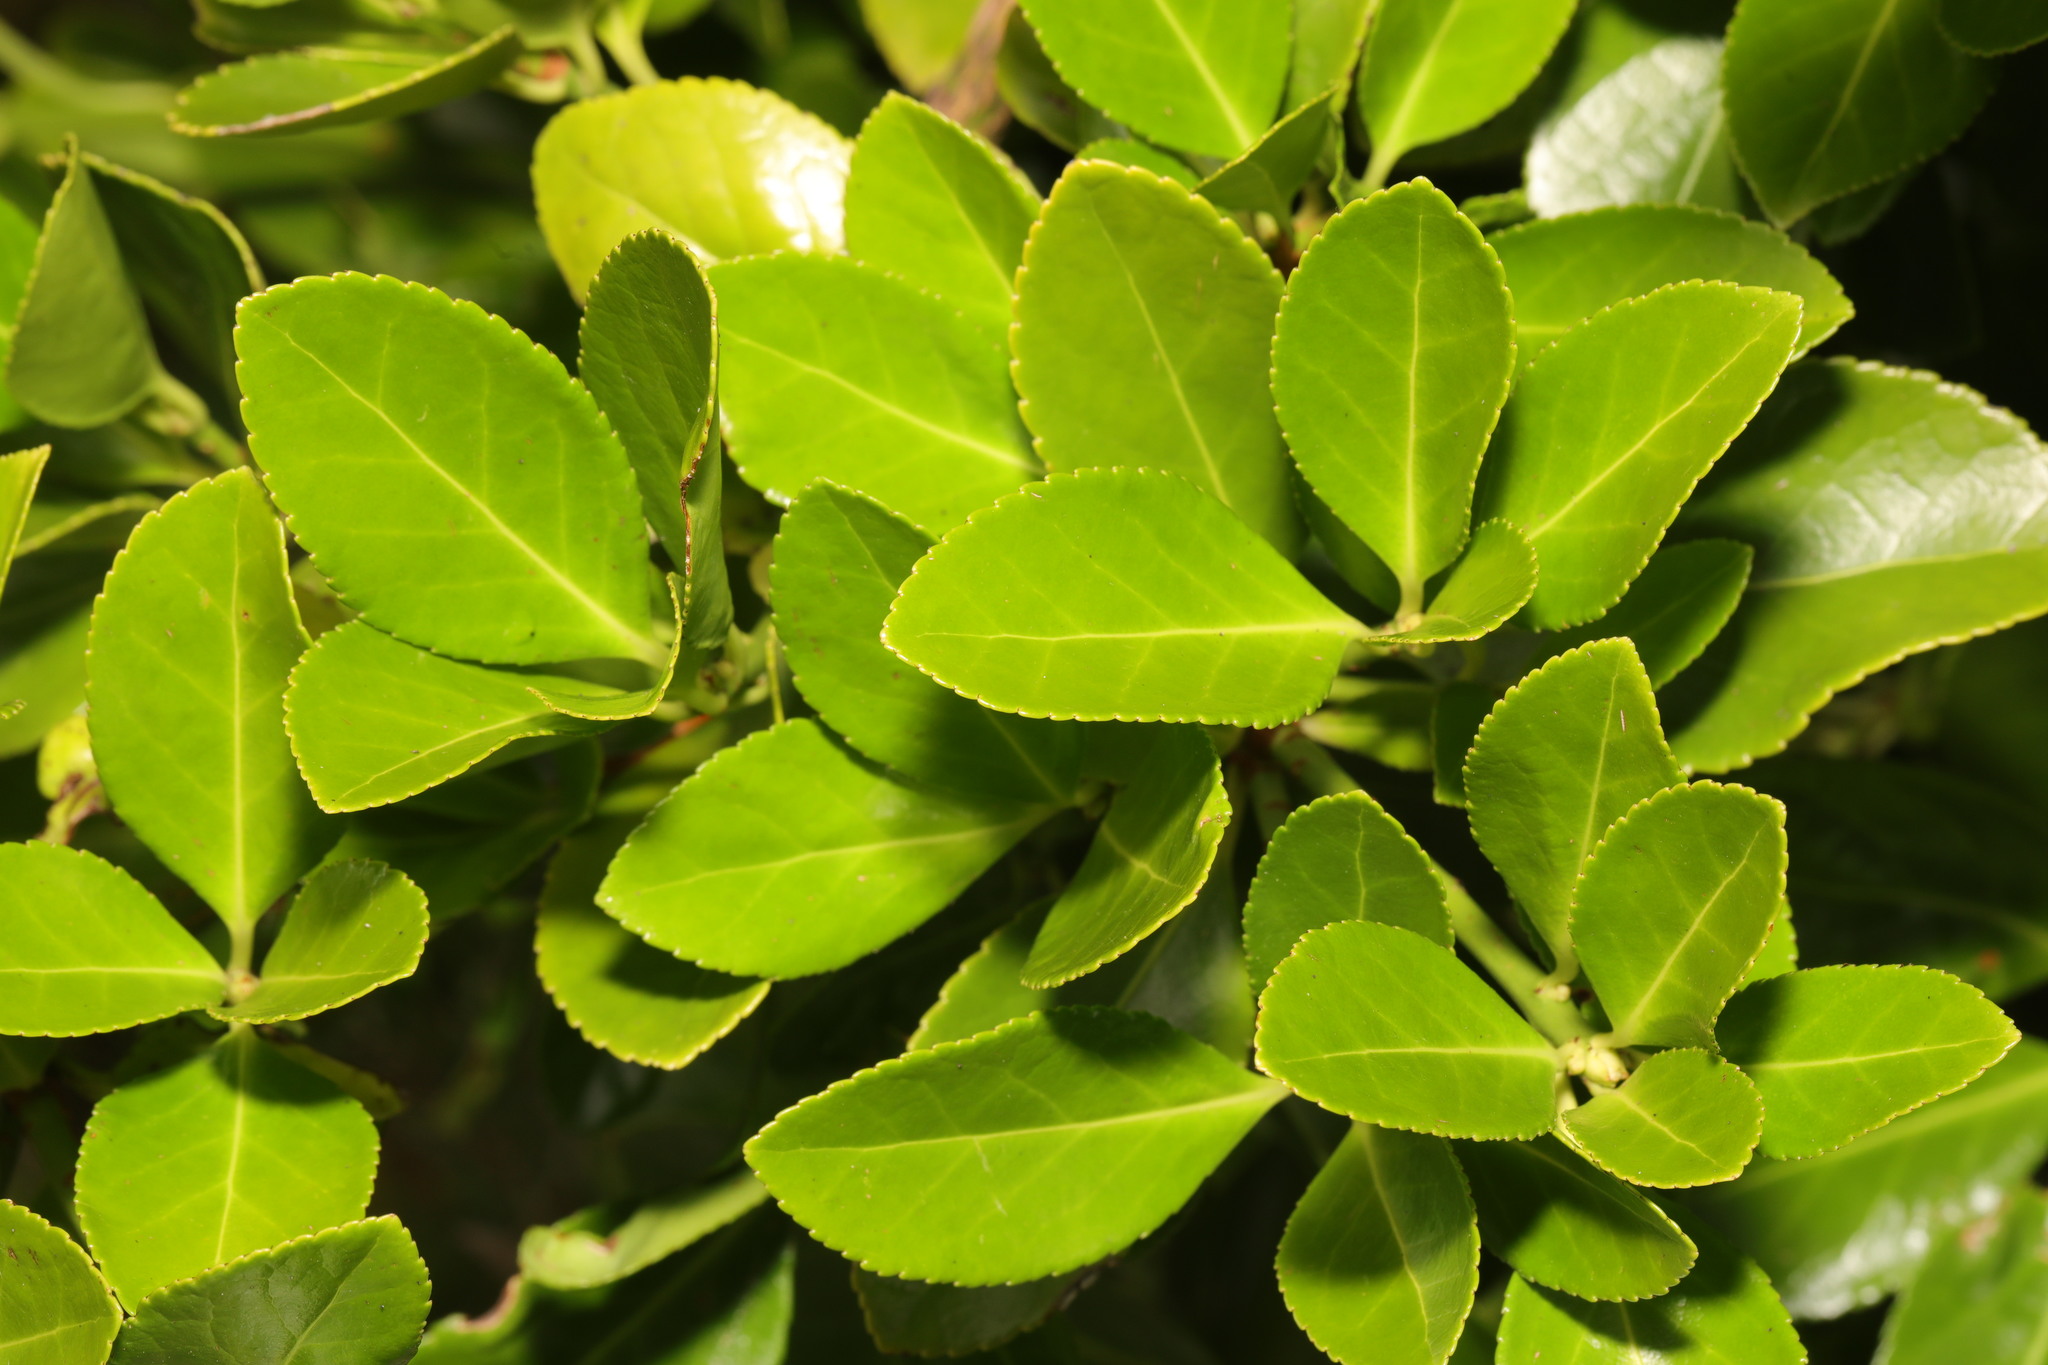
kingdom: Plantae
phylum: Tracheophyta
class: Magnoliopsida
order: Celastrales
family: Celastraceae
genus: Euonymus
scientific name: Euonymus japonicus
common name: Japanese spindletree
